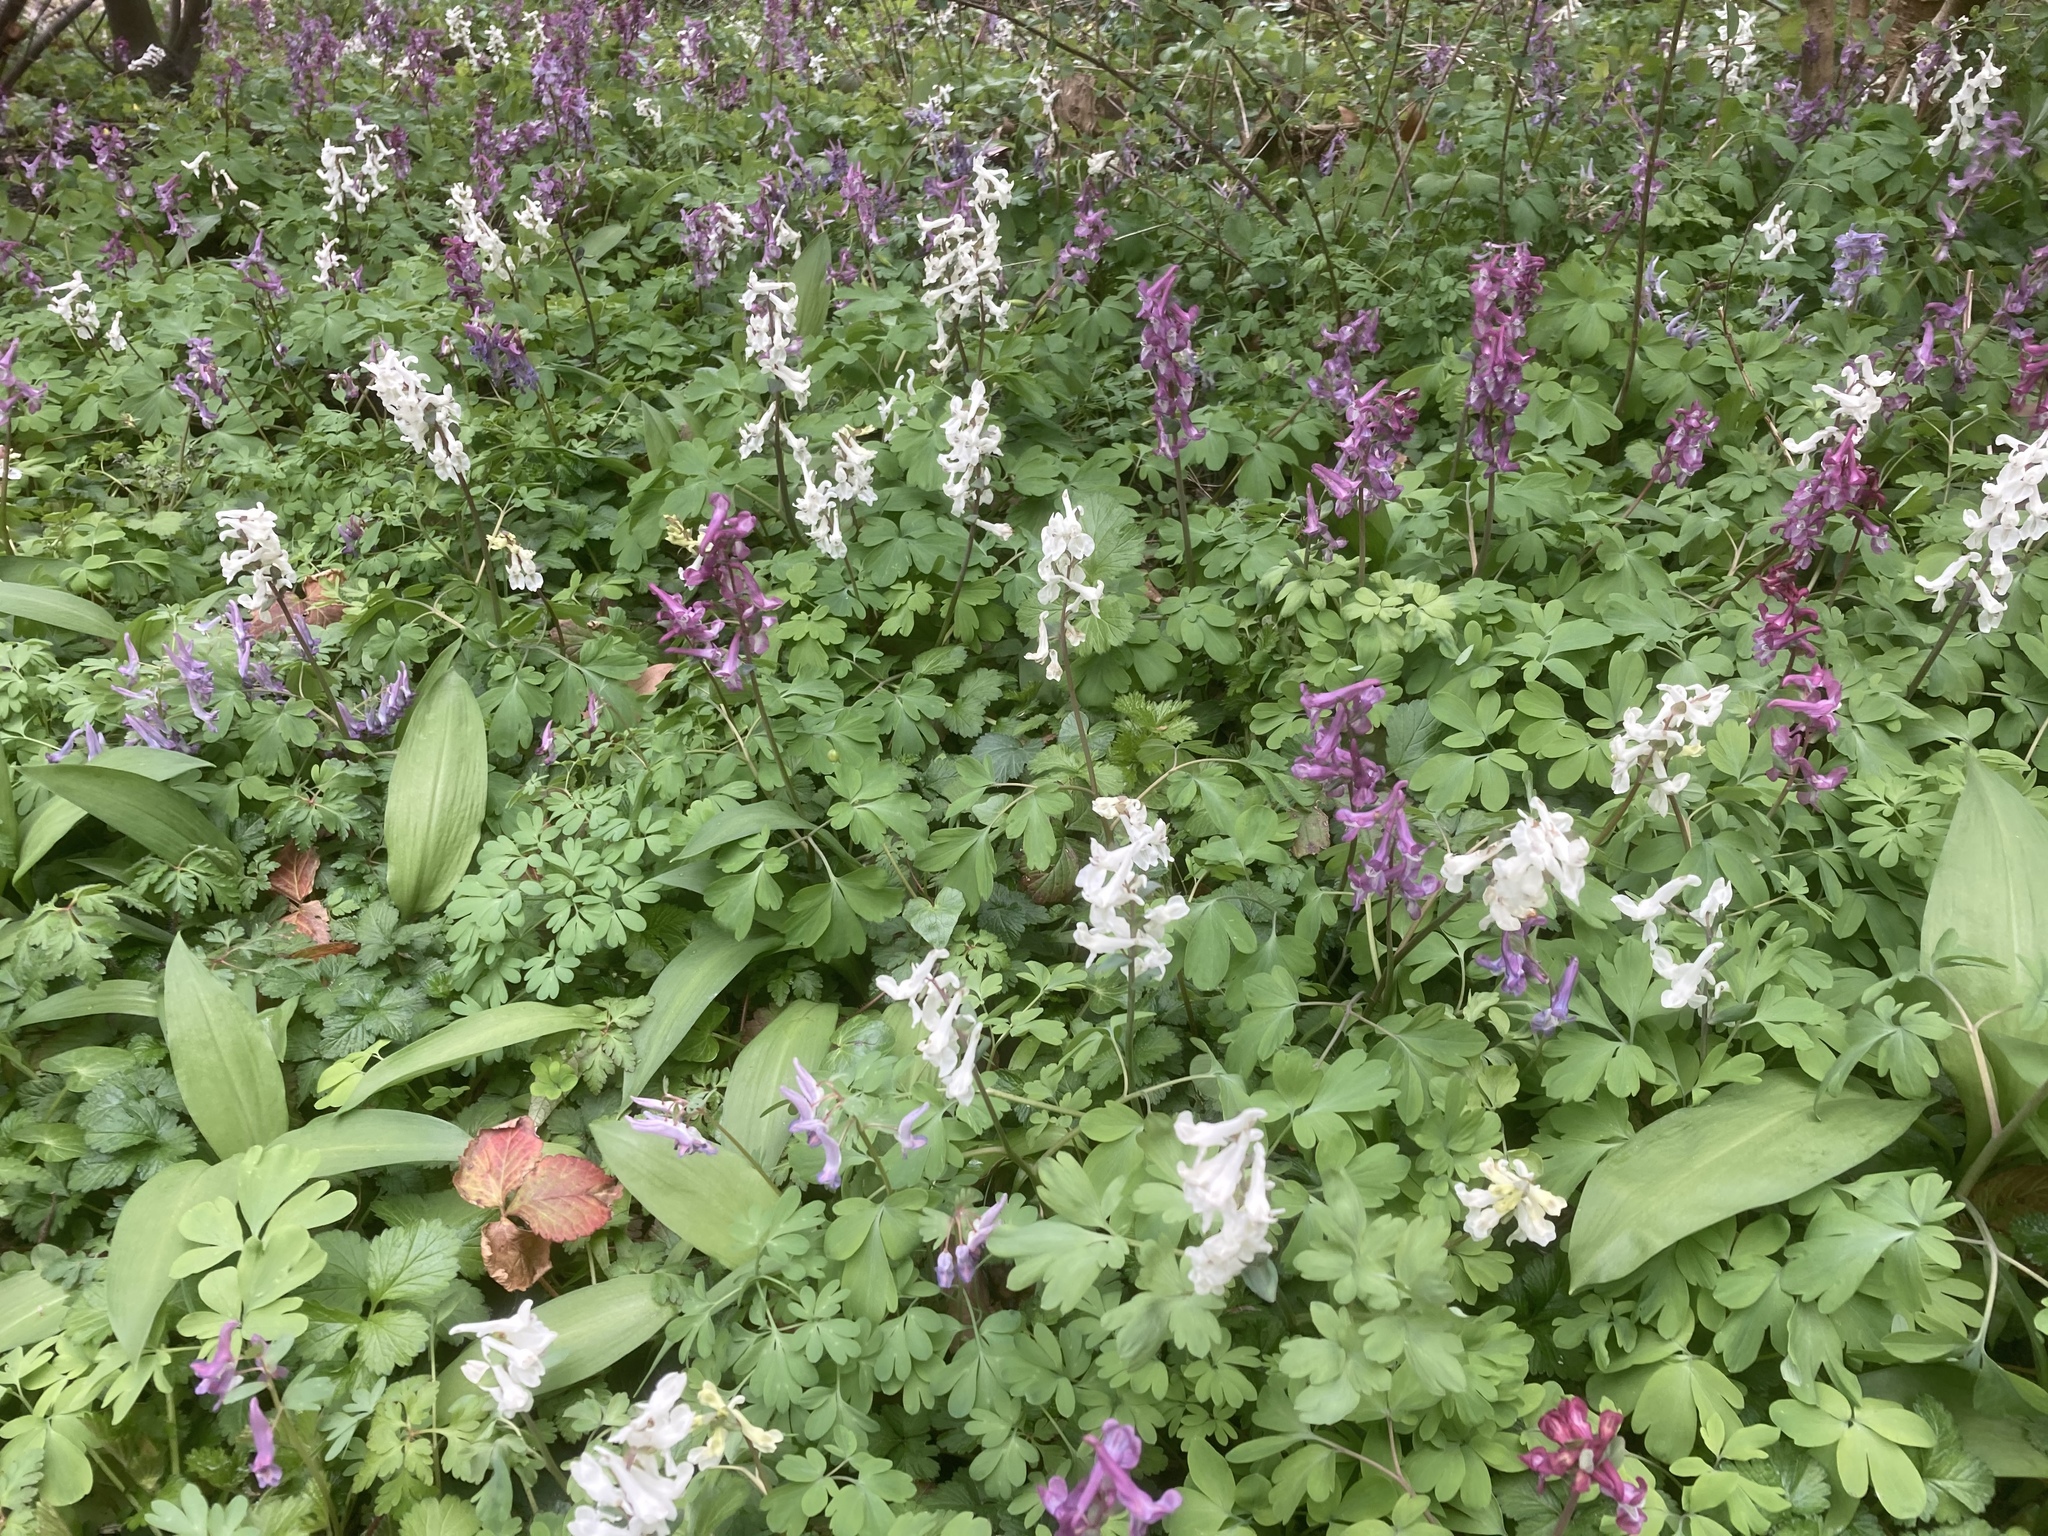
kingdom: Plantae
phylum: Tracheophyta
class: Liliopsida
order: Asparagales
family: Amaryllidaceae
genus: Allium
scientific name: Allium ursinum
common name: Ramsons
